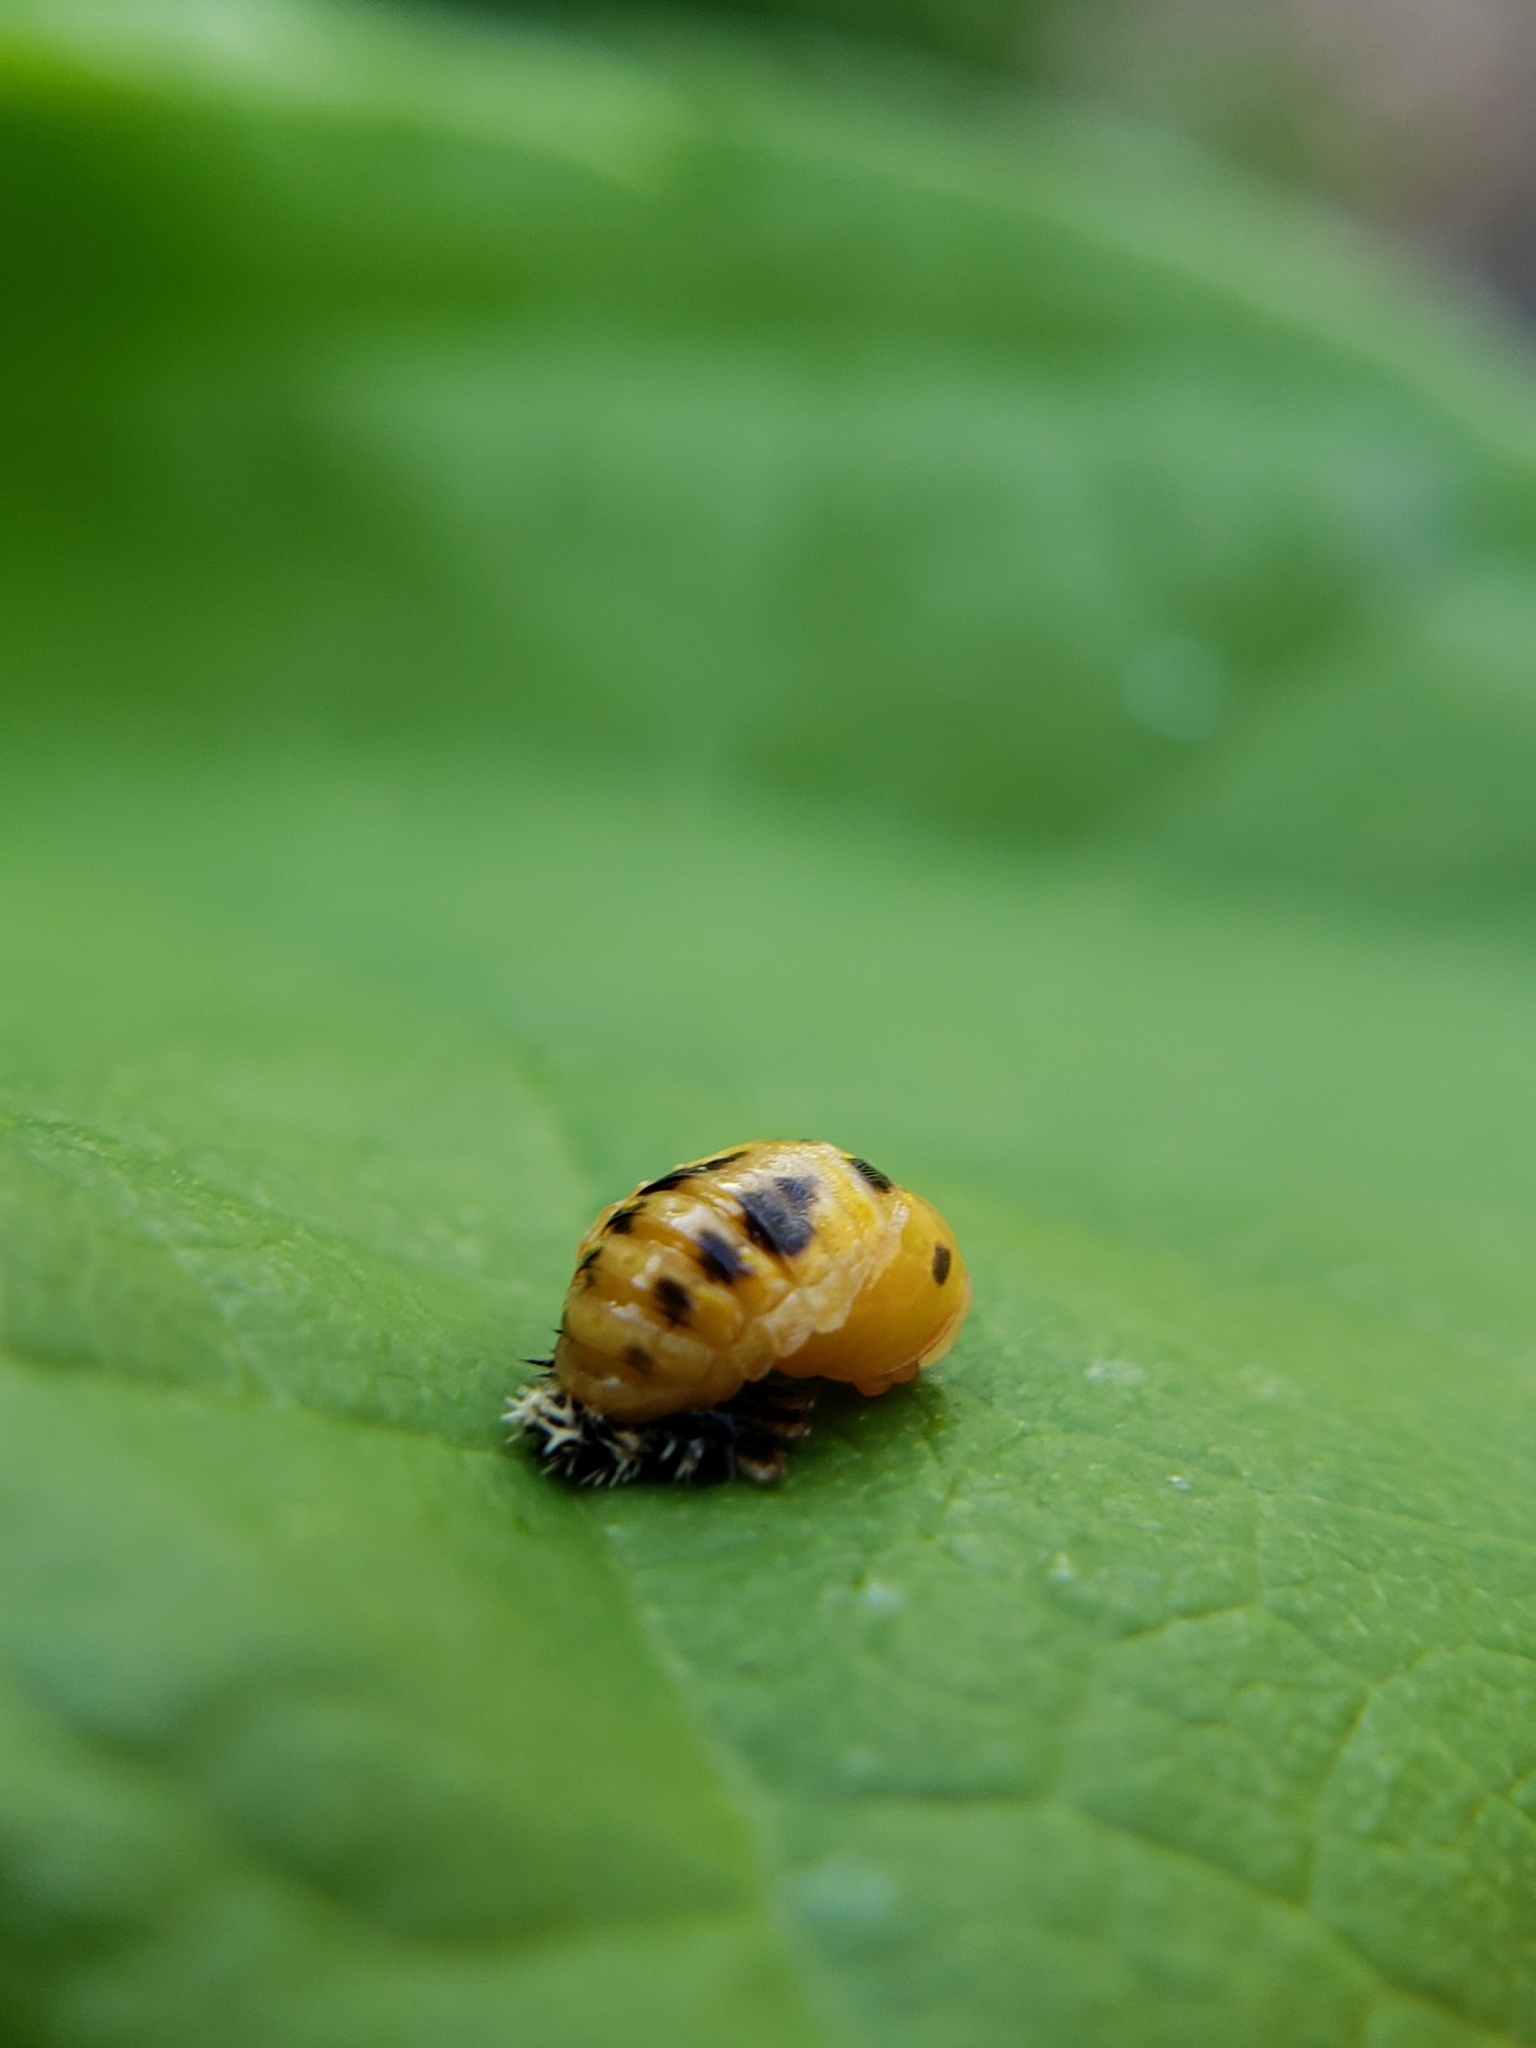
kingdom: Animalia
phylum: Arthropoda
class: Insecta
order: Coleoptera
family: Coccinellidae
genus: Harmonia
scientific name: Harmonia axyridis
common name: Harlequin ladybird
